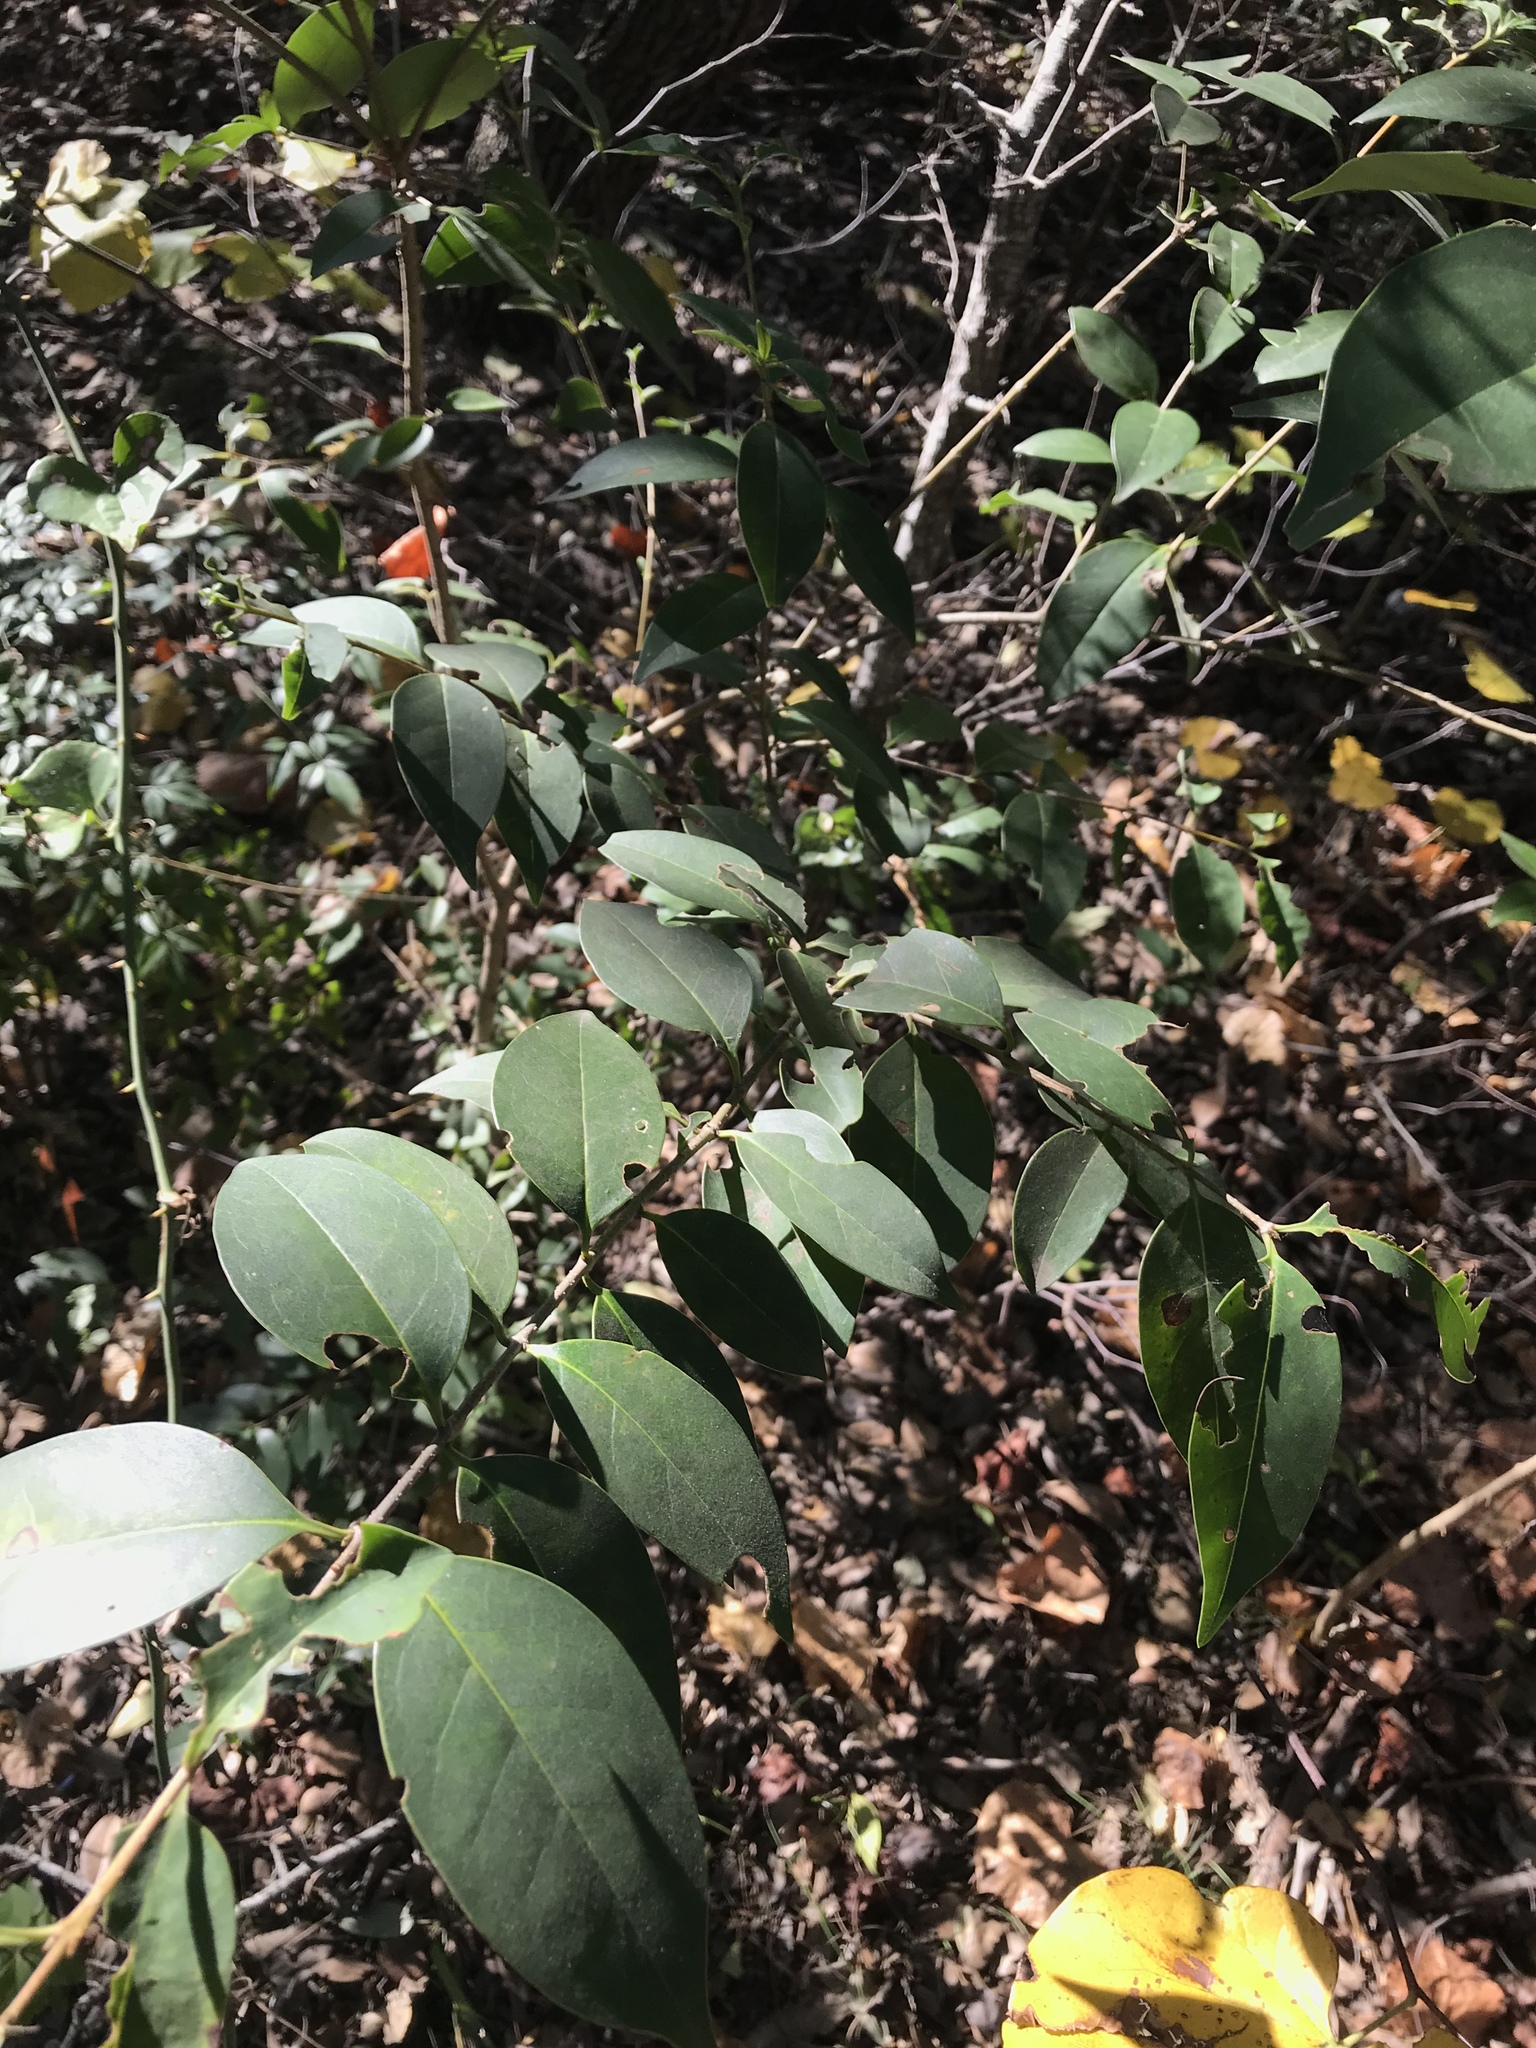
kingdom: Plantae
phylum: Tracheophyta
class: Magnoliopsida
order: Lamiales
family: Oleaceae
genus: Ligustrum
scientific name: Ligustrum lucidum
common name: Glossy privet
